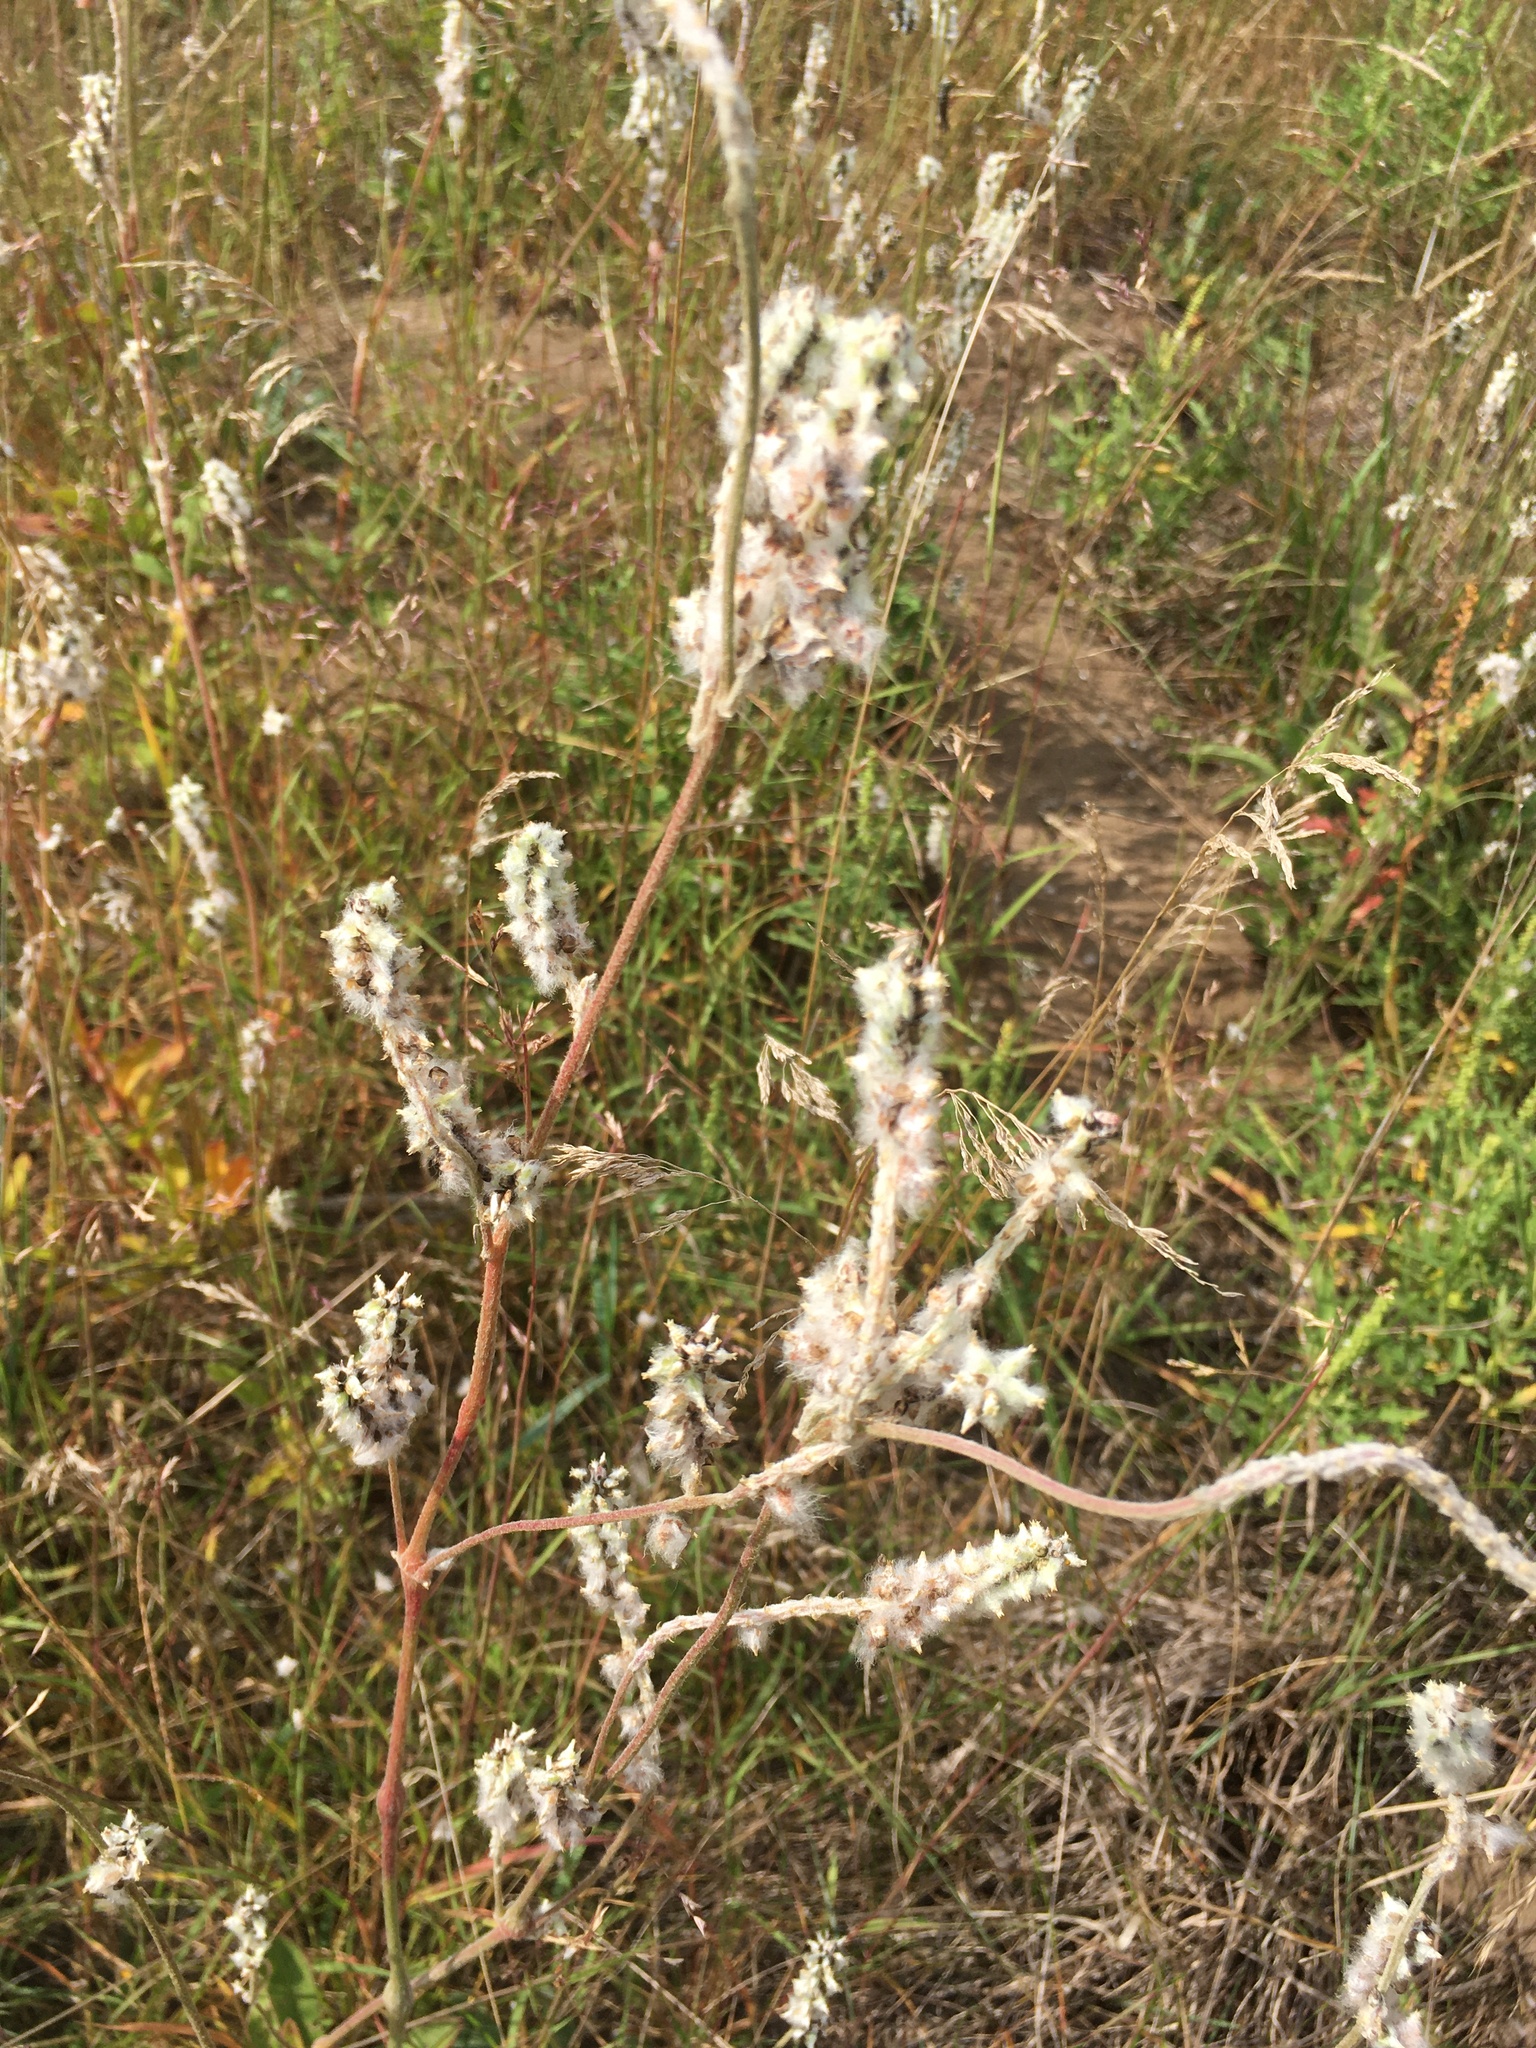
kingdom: Plantae
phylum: Tracheophyta
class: Magnoliopsida
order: Caryophyllales
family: Amaranthaceae
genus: Froelichia
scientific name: Froelichia floridana
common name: Florida snake-cotton
